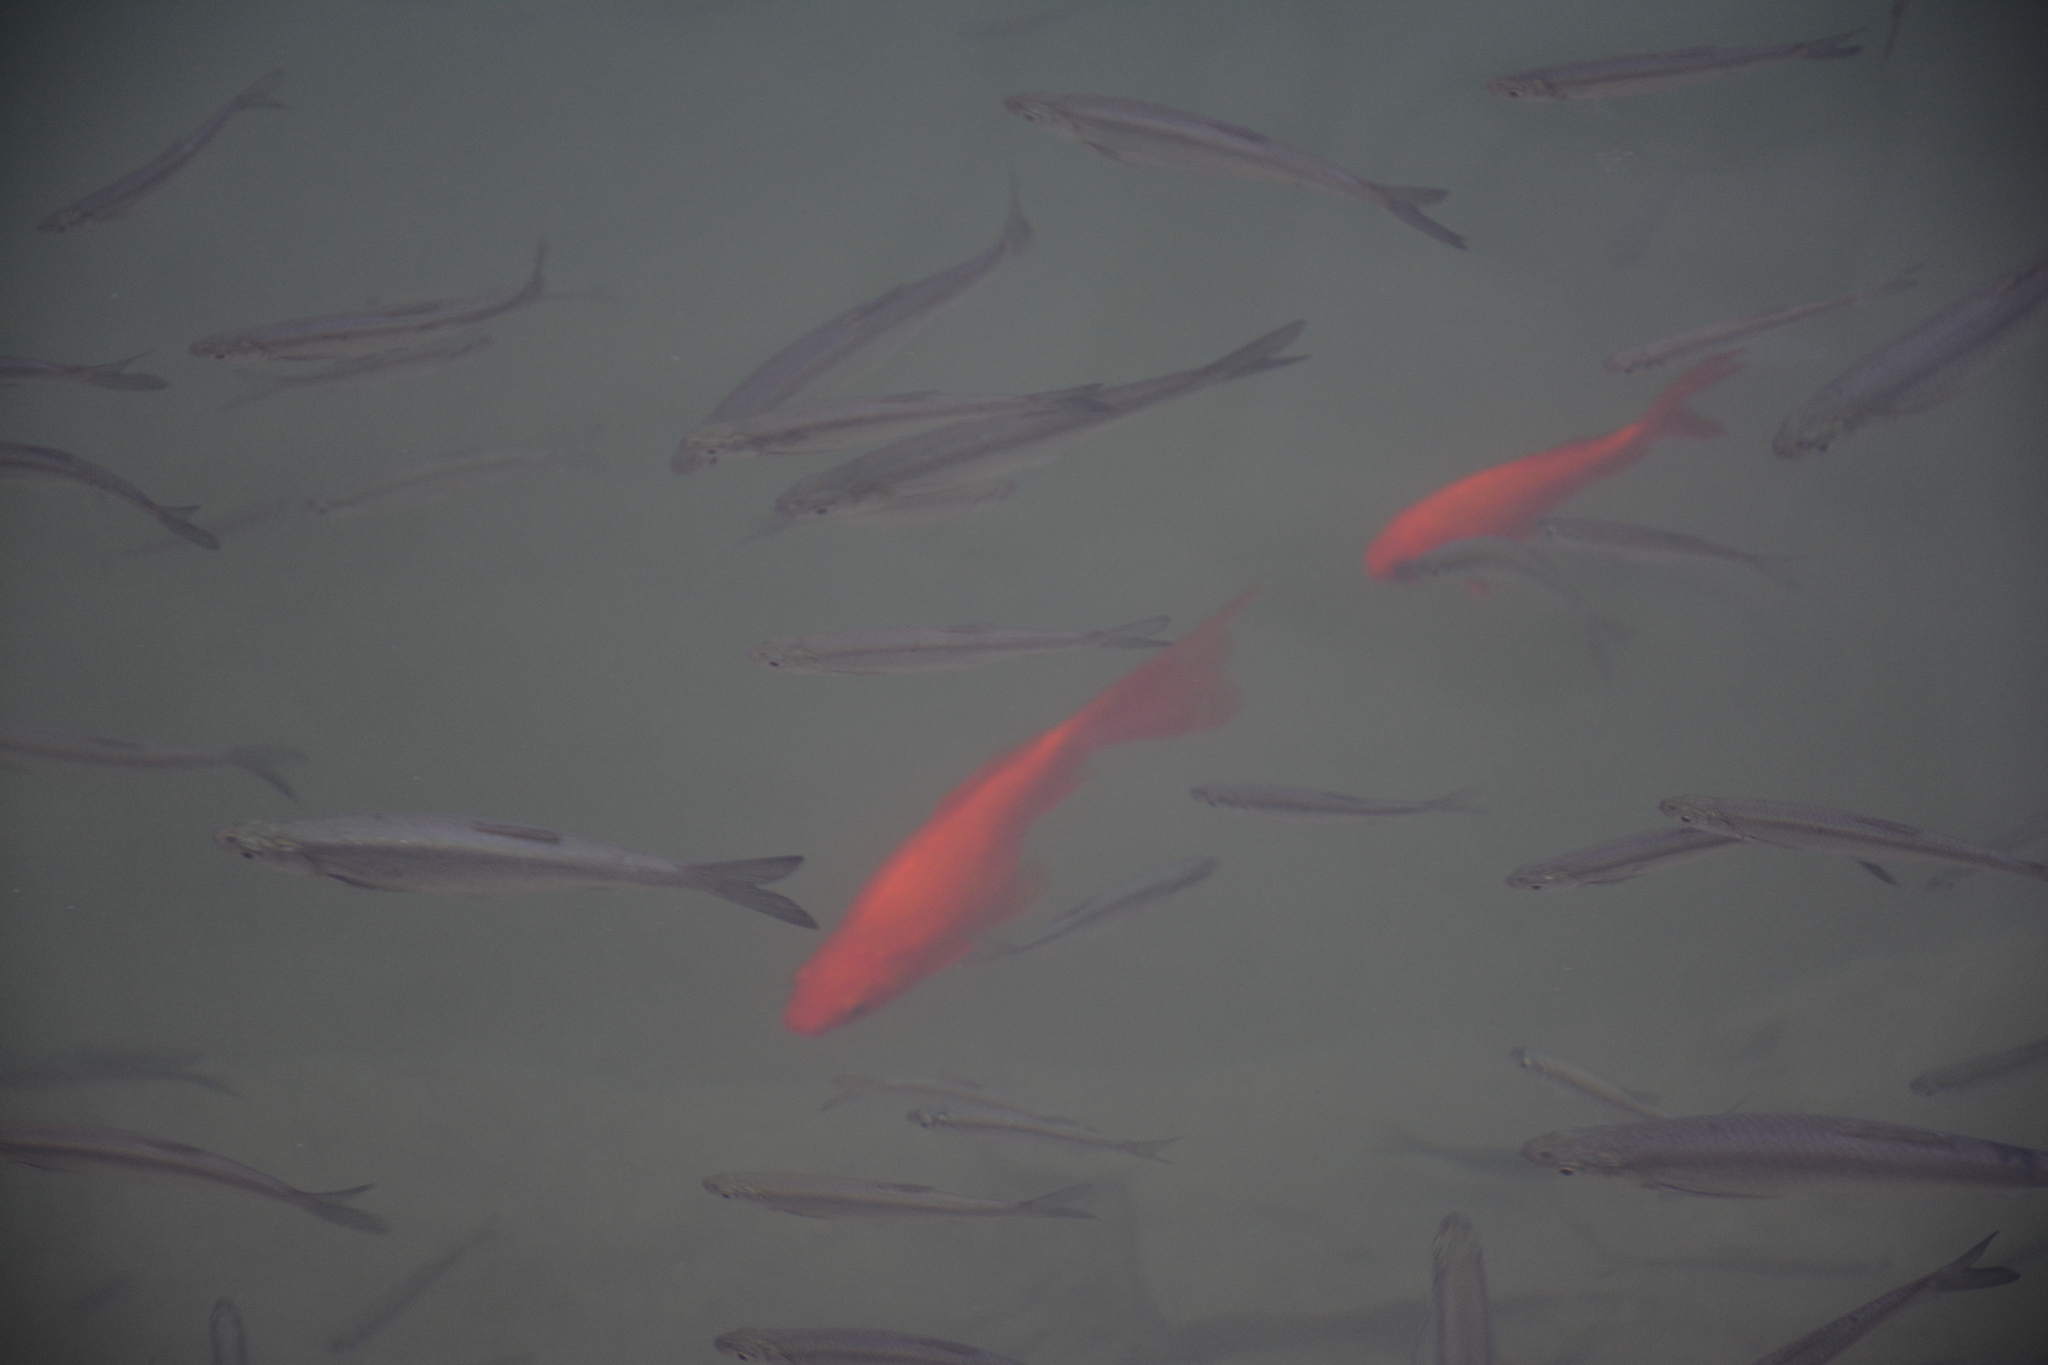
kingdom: Animalia
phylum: Chordata
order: Cypriniformes
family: Cyprinidae
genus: Hemiculter
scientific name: Hemiculter leucisculus
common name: Common sawbelly
